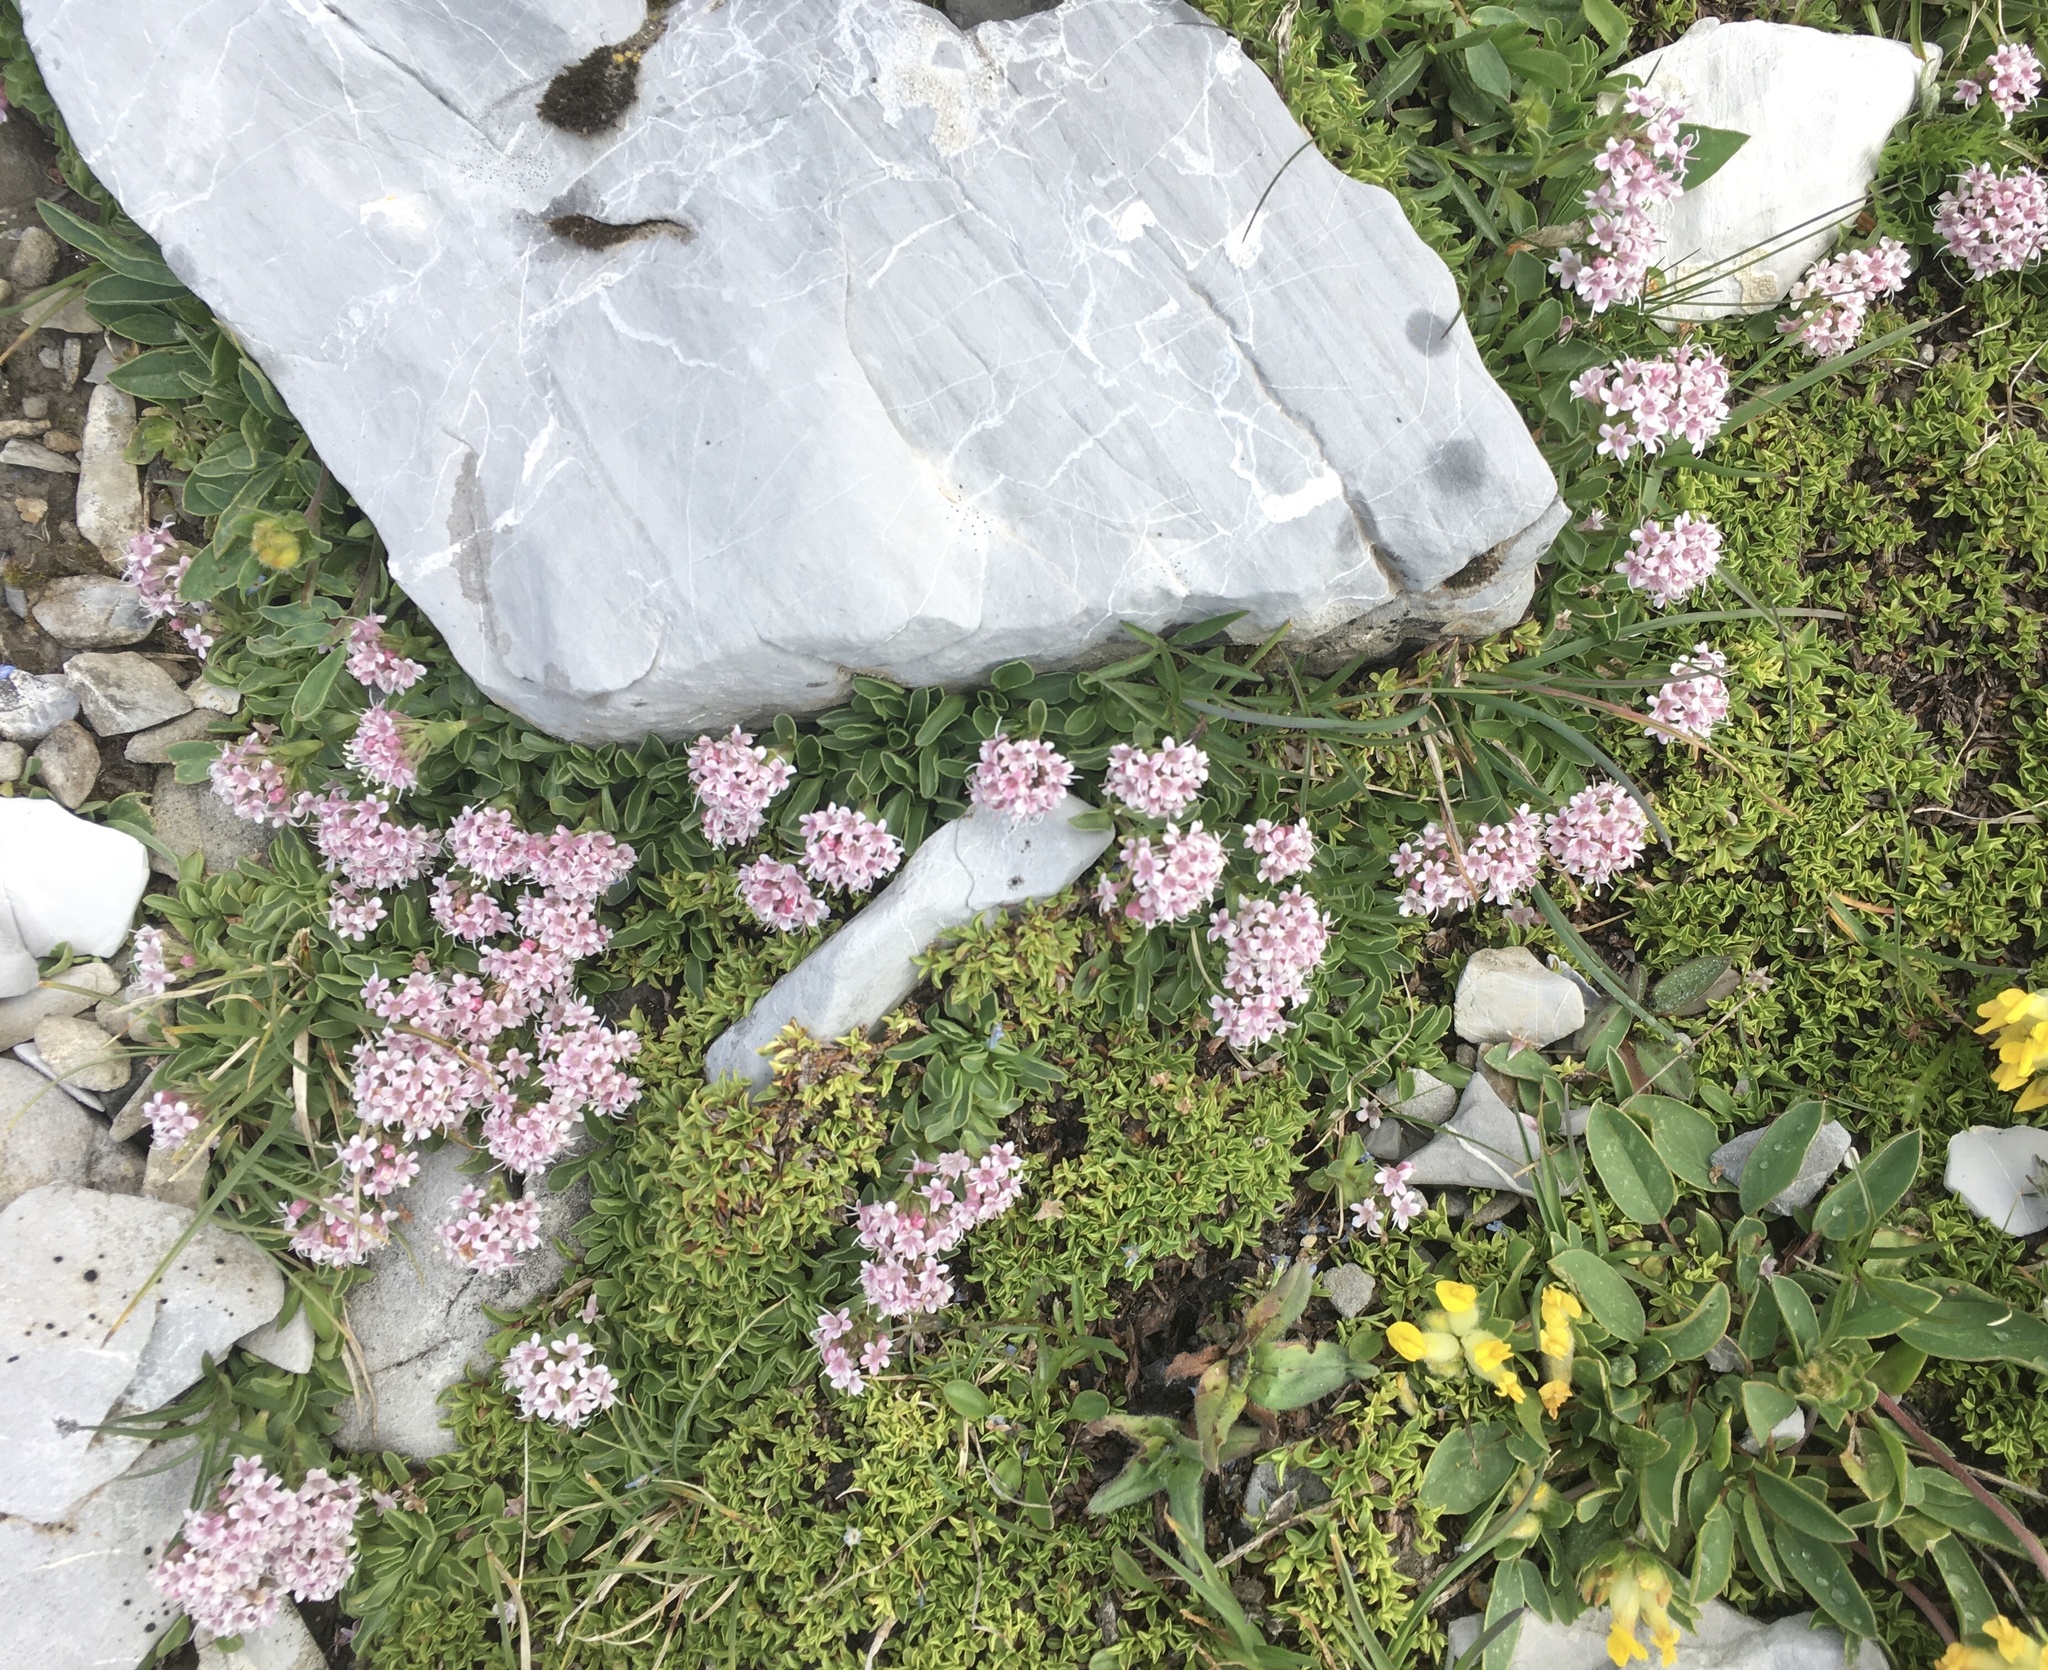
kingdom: Plantae
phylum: Tracheophyta
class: Magnoliopsida
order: Dipsacales
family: Caprifoliaceae
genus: Valeriana
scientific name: Valeriana supina
